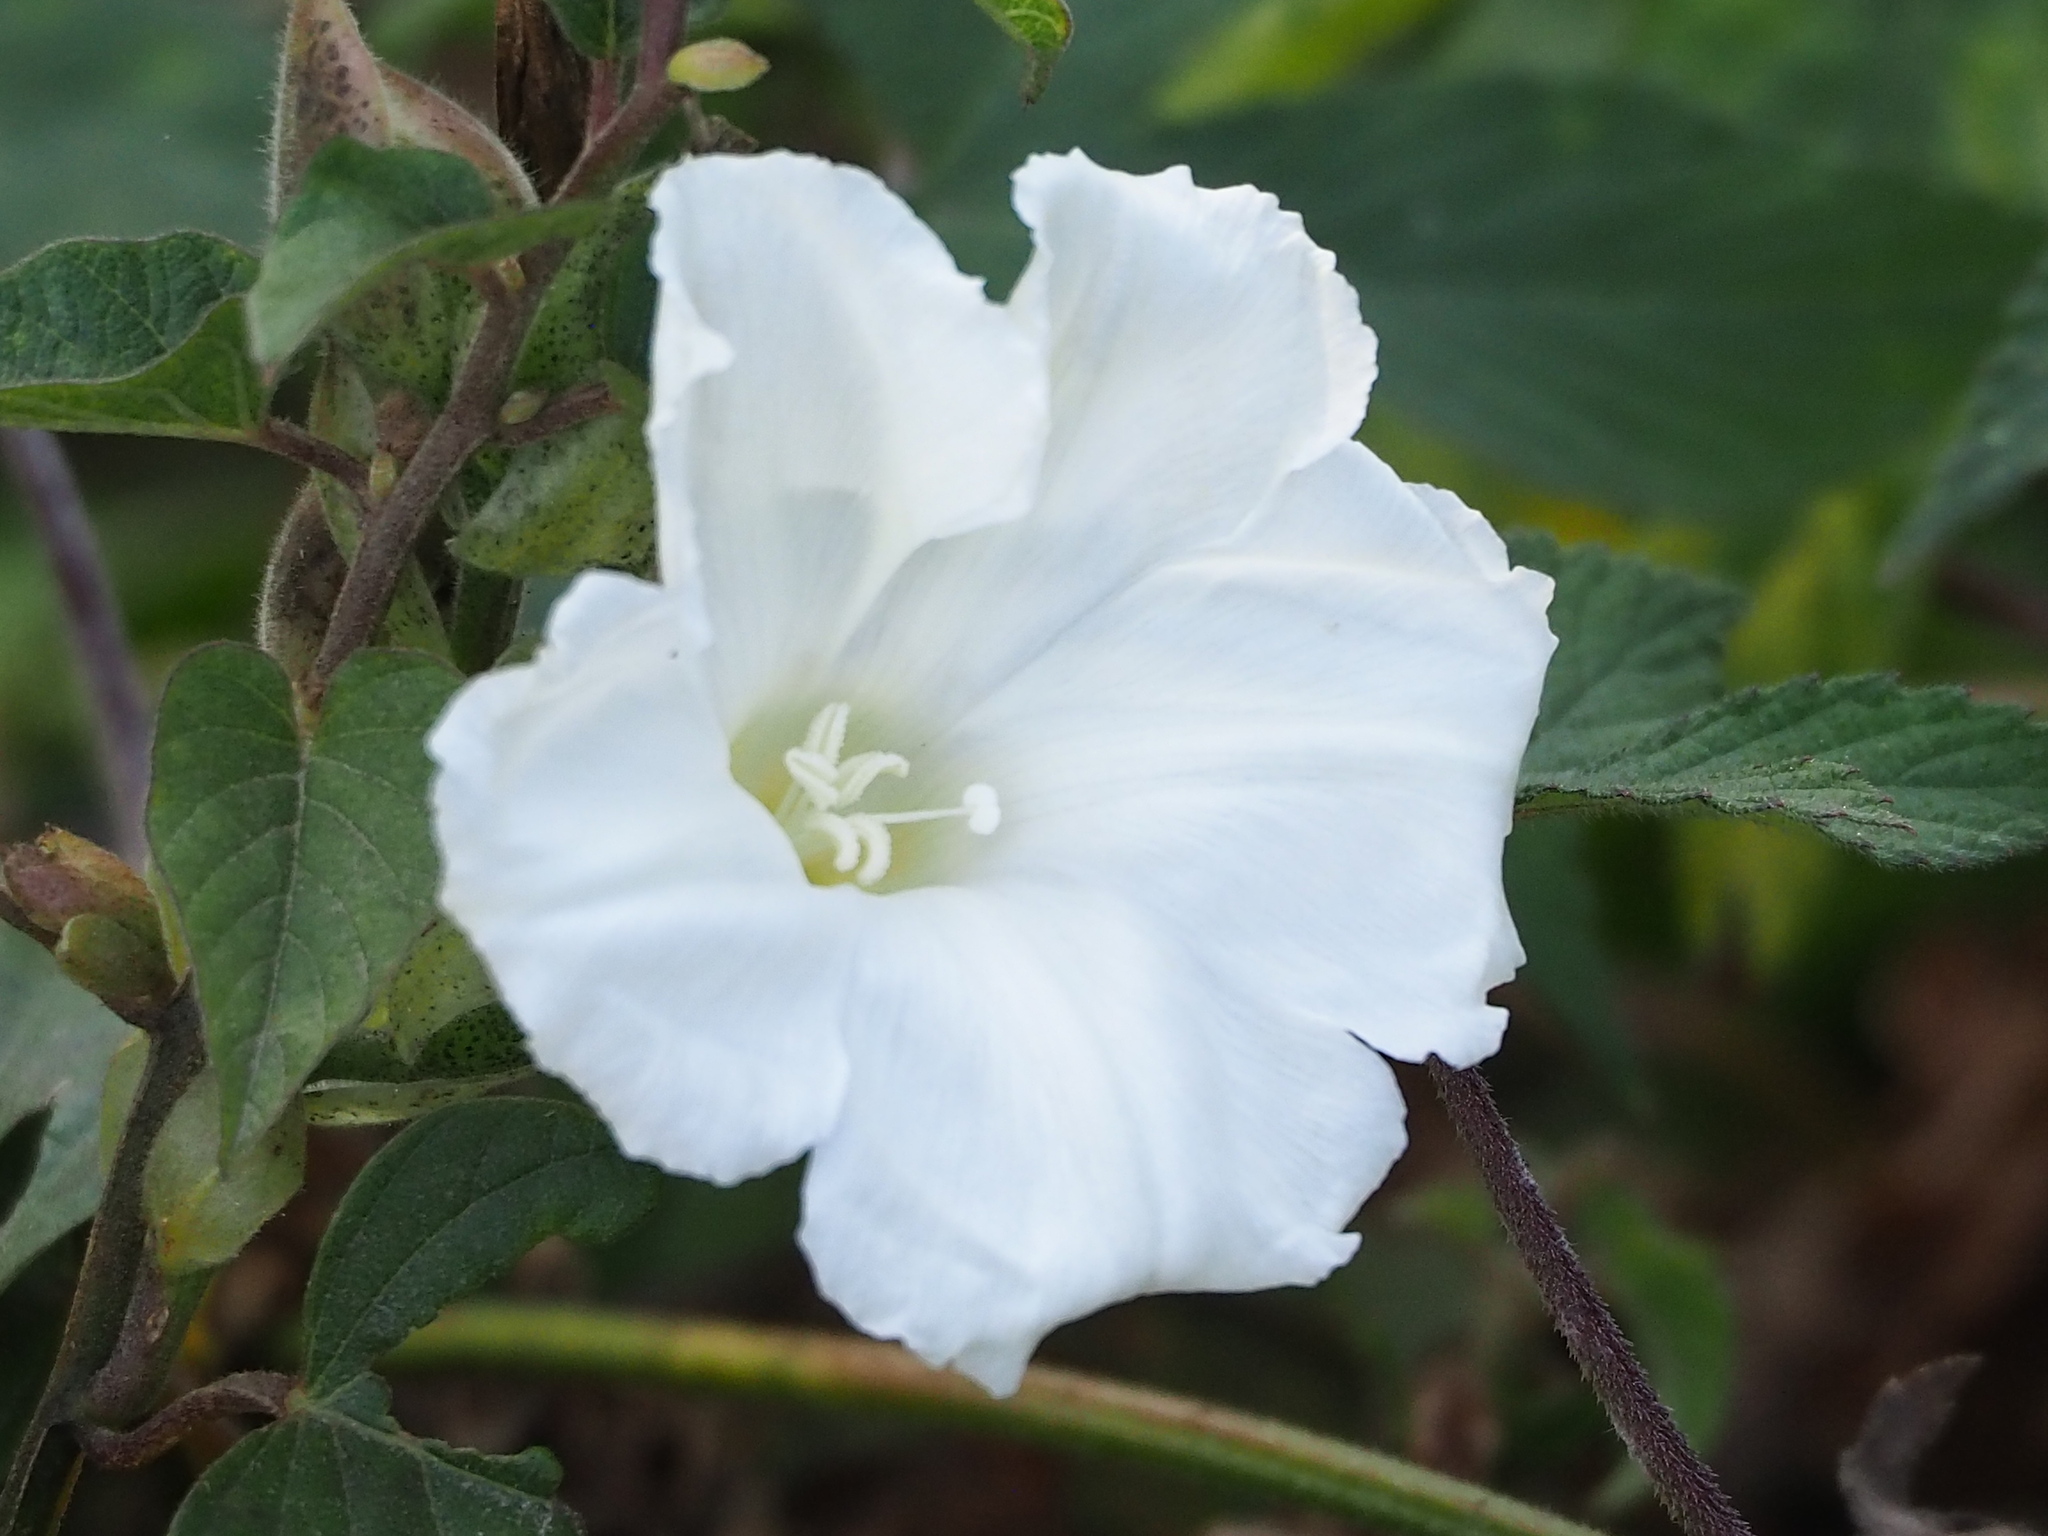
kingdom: Plantae
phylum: Tracheophyta
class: Magnoliopsida
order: Solanales
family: Convolvulaceae
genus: Operculina
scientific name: Operculina turpethum
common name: Transparent wood-rose
